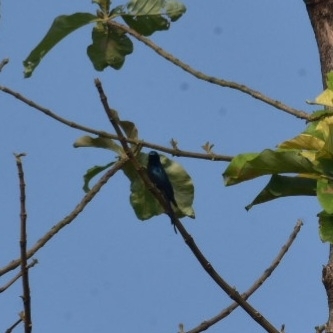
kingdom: Animalia
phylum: Chordata
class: Aves
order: Passeriformes
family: Dicruridae
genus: Dicrurus
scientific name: Dicrurus aeneus
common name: Bronzed drongo
